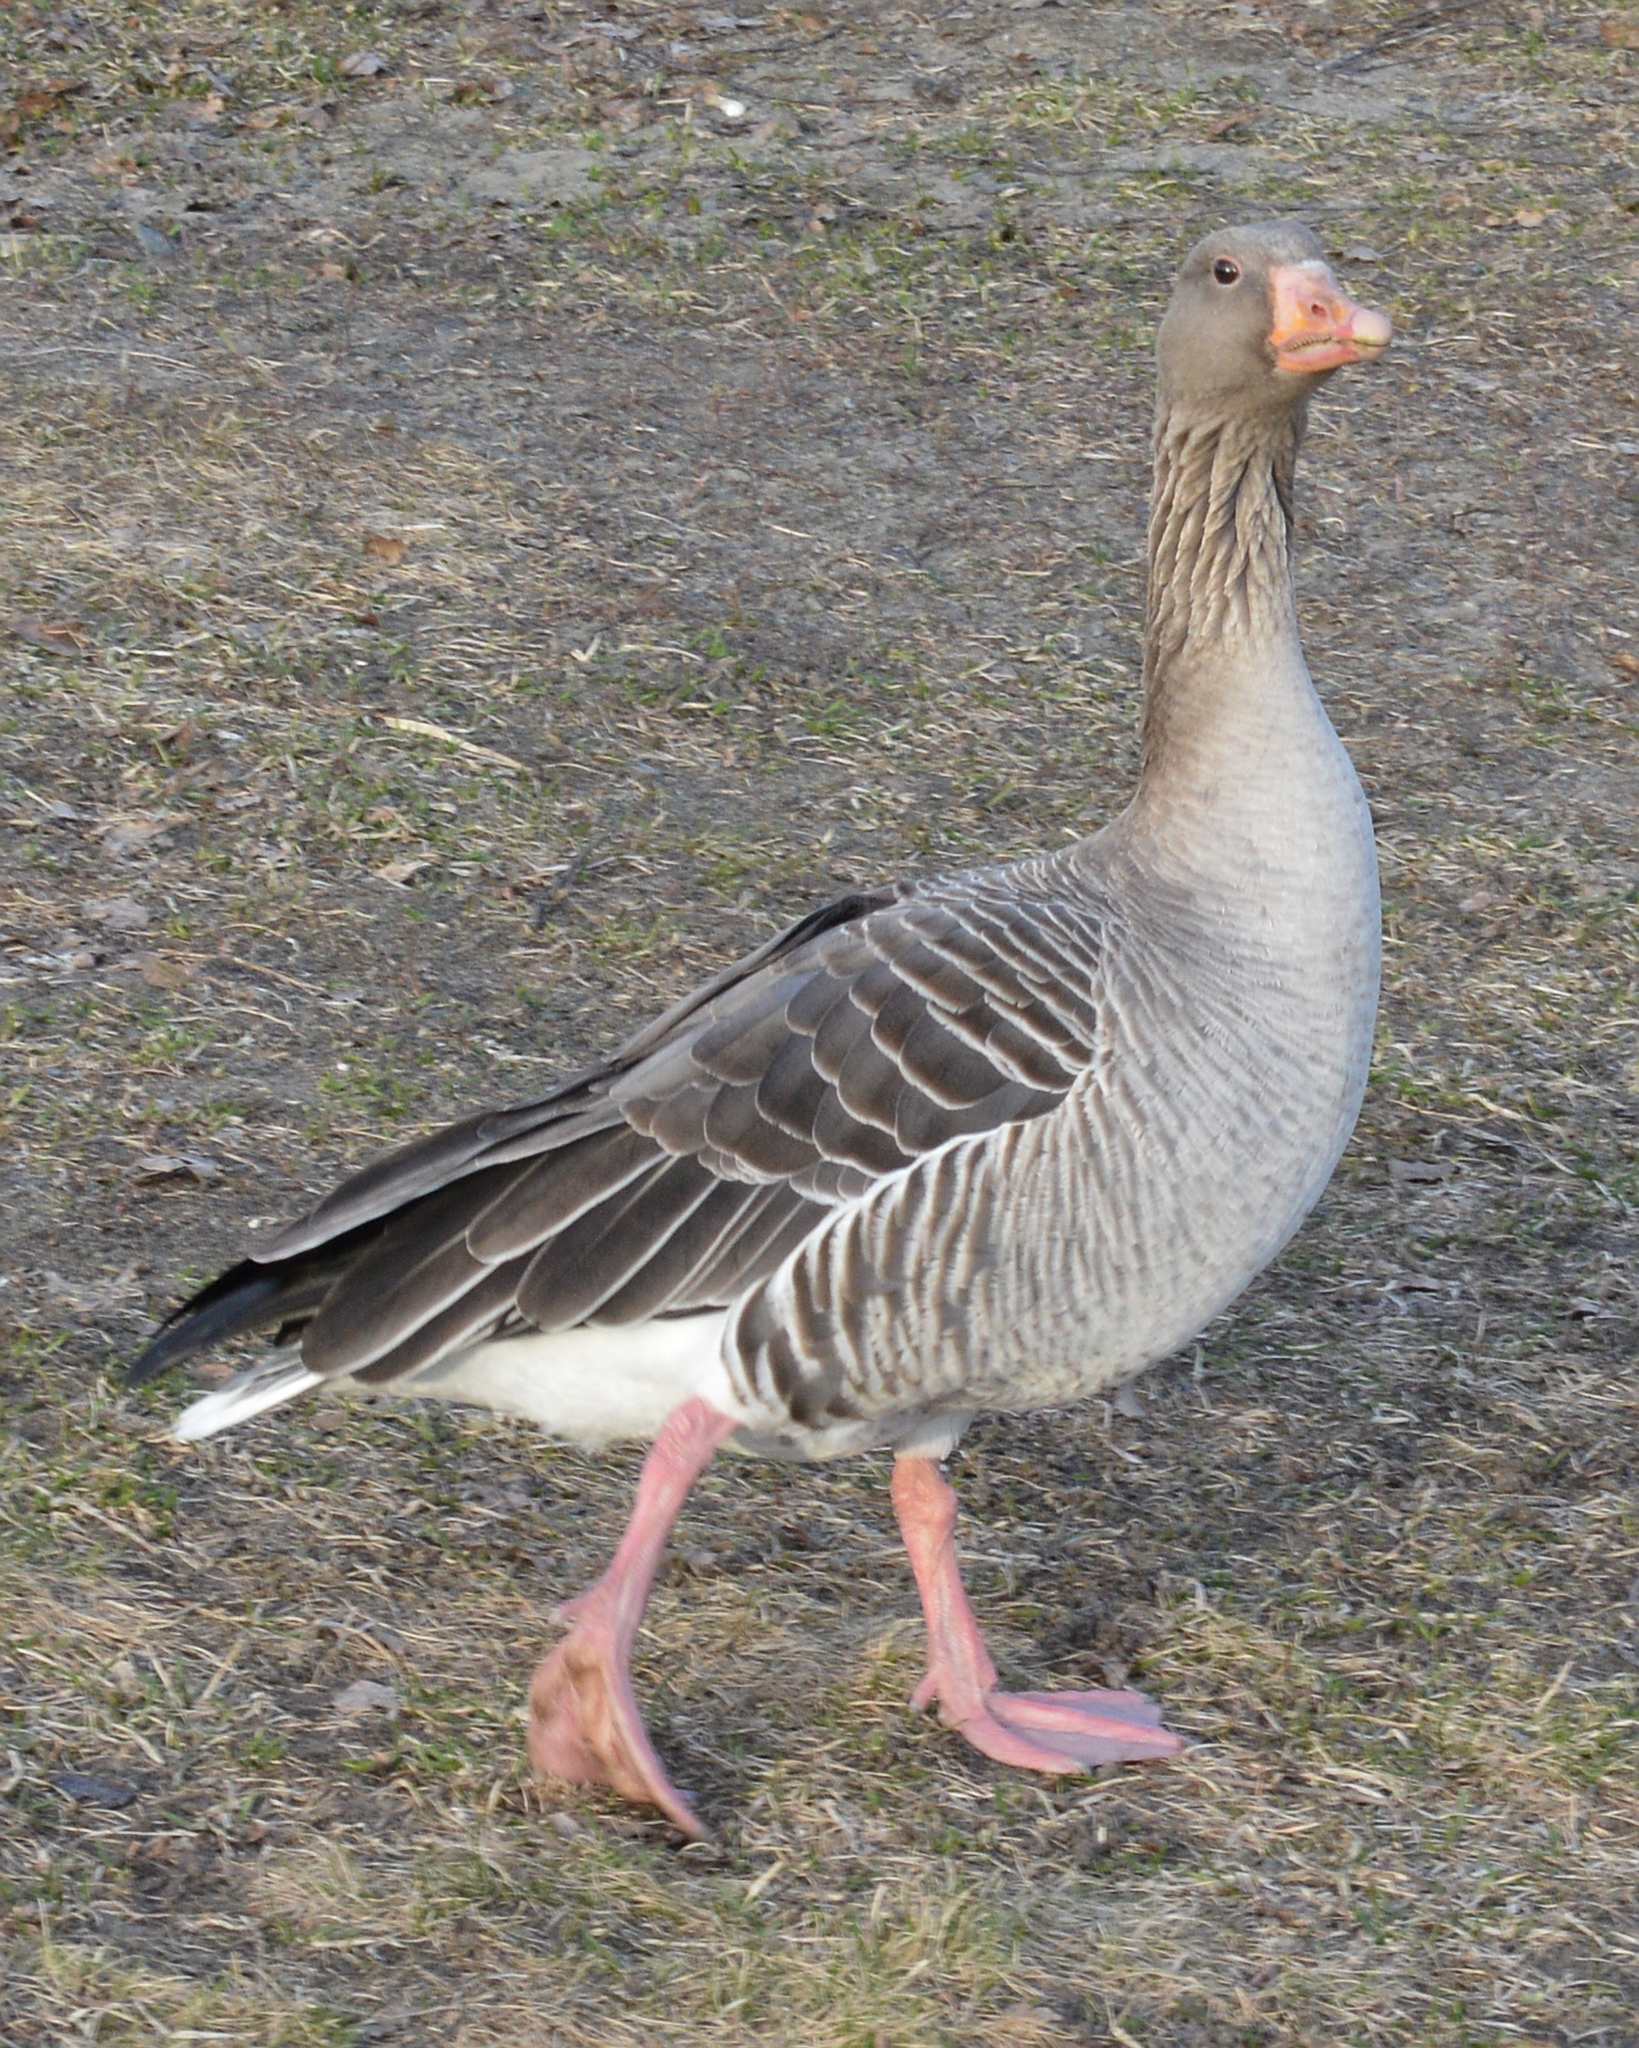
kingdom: Animalia
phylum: Chordata
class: Aves
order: Anseriformes
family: Anatidae
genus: Anser
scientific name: Anser anser
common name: Greylag goose
